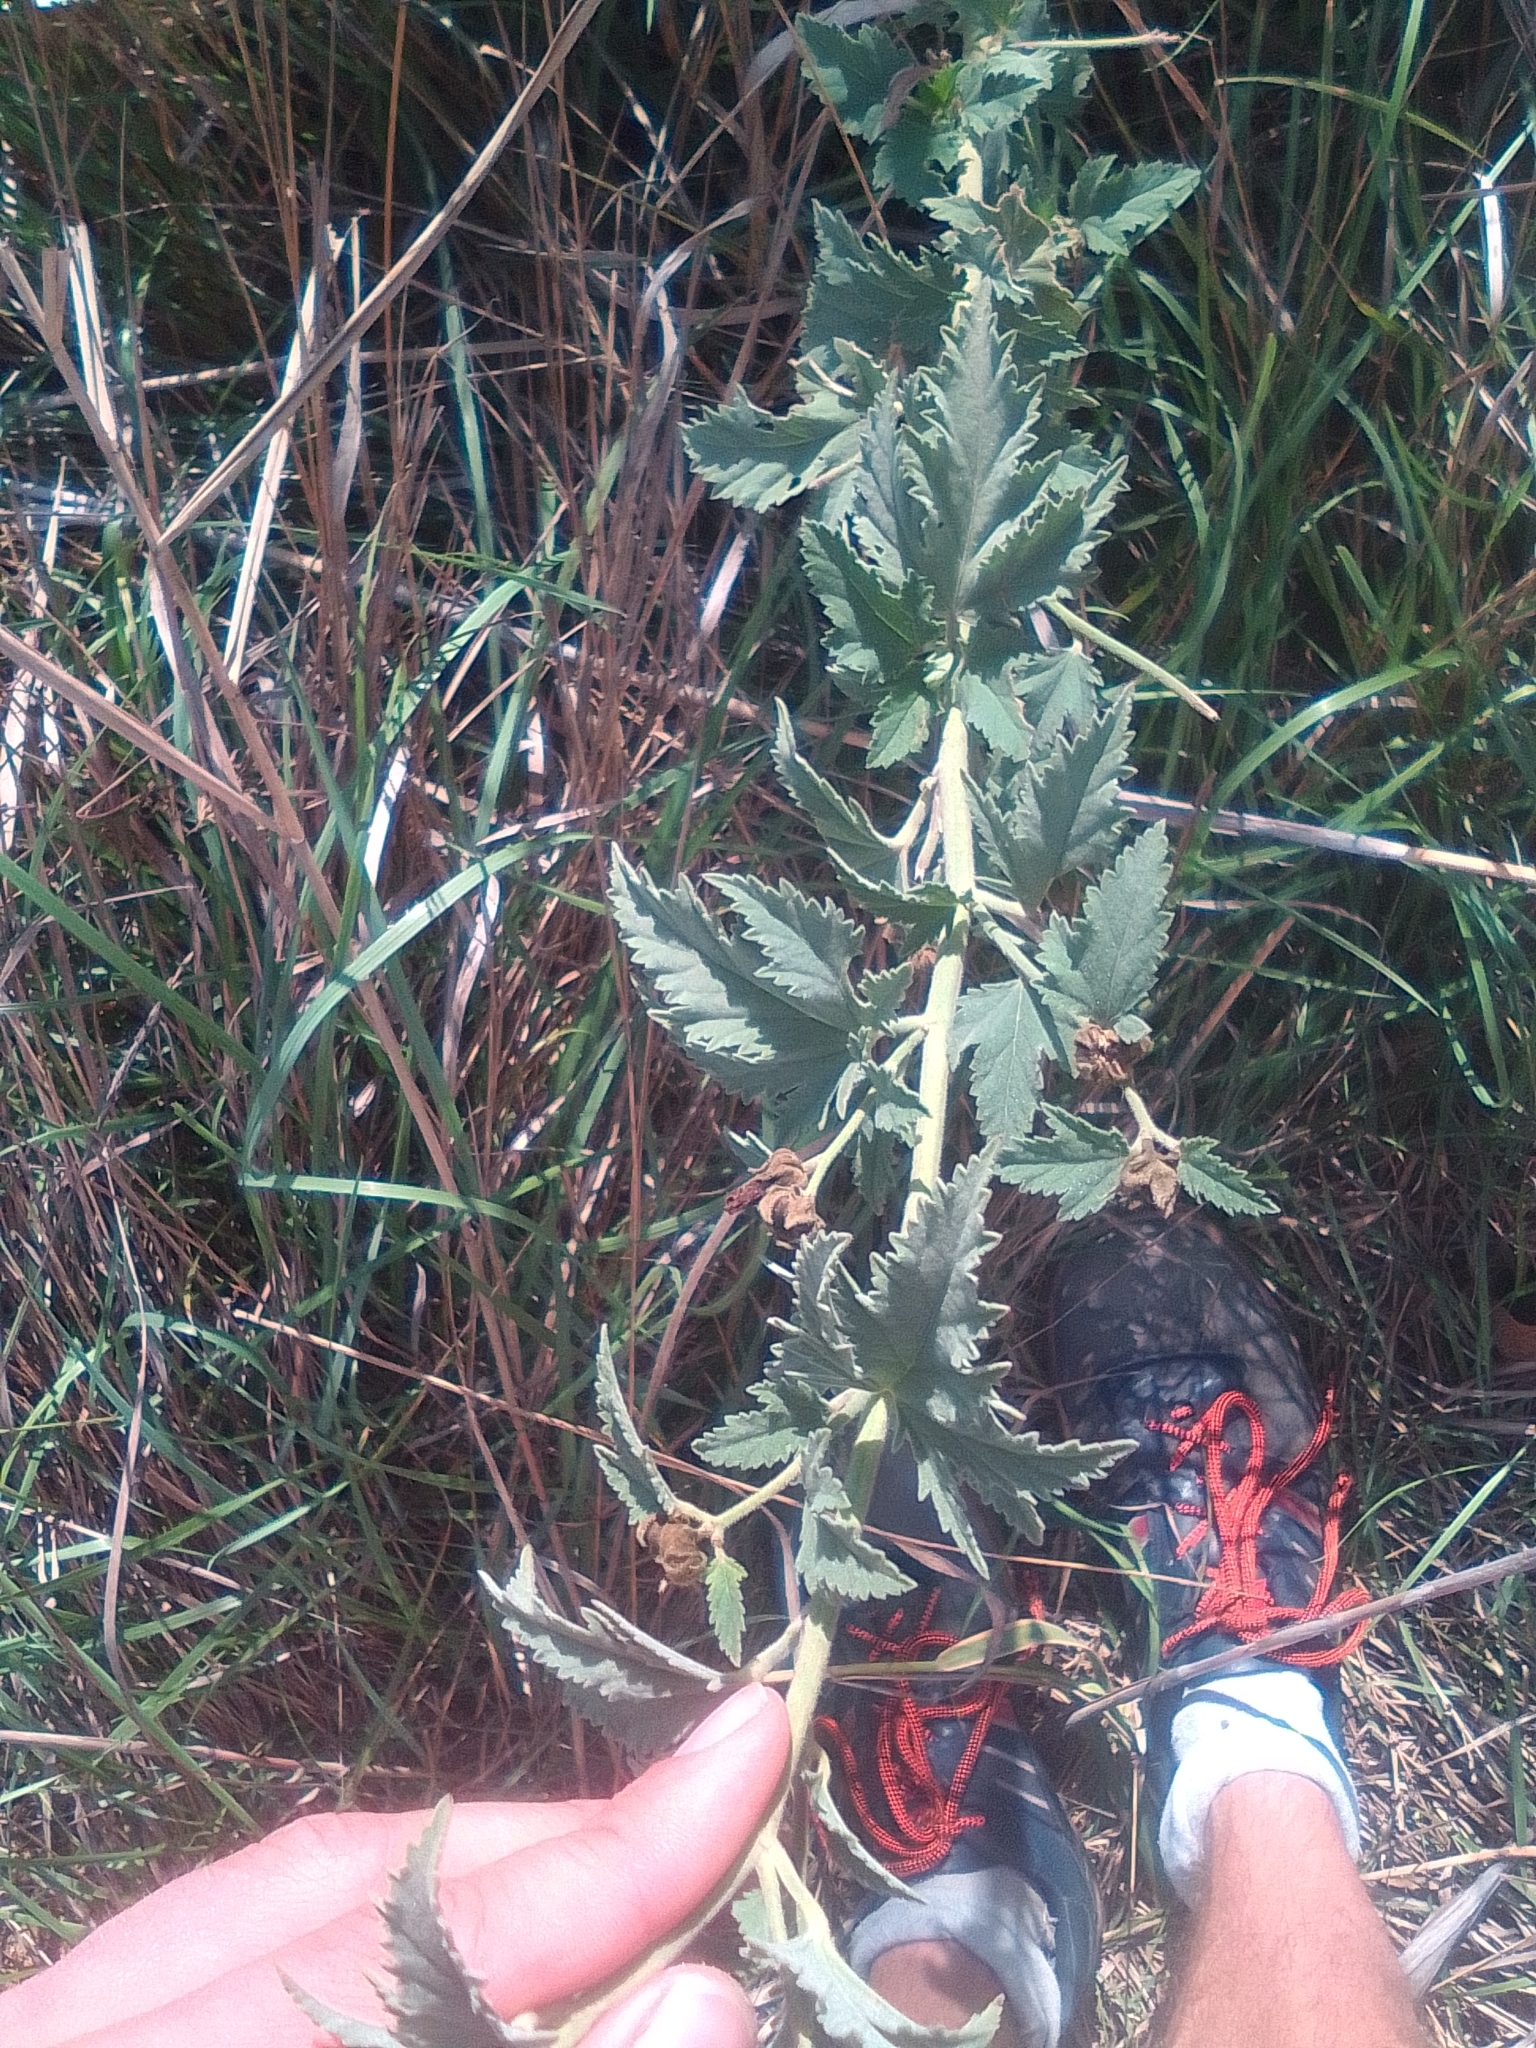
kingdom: Plantae
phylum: Tracheophyta
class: Magnoliopsida
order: Malvales
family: Malvaceae
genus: Althaea
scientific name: Althaea cannabina
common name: Palm-leaf marshmallow
